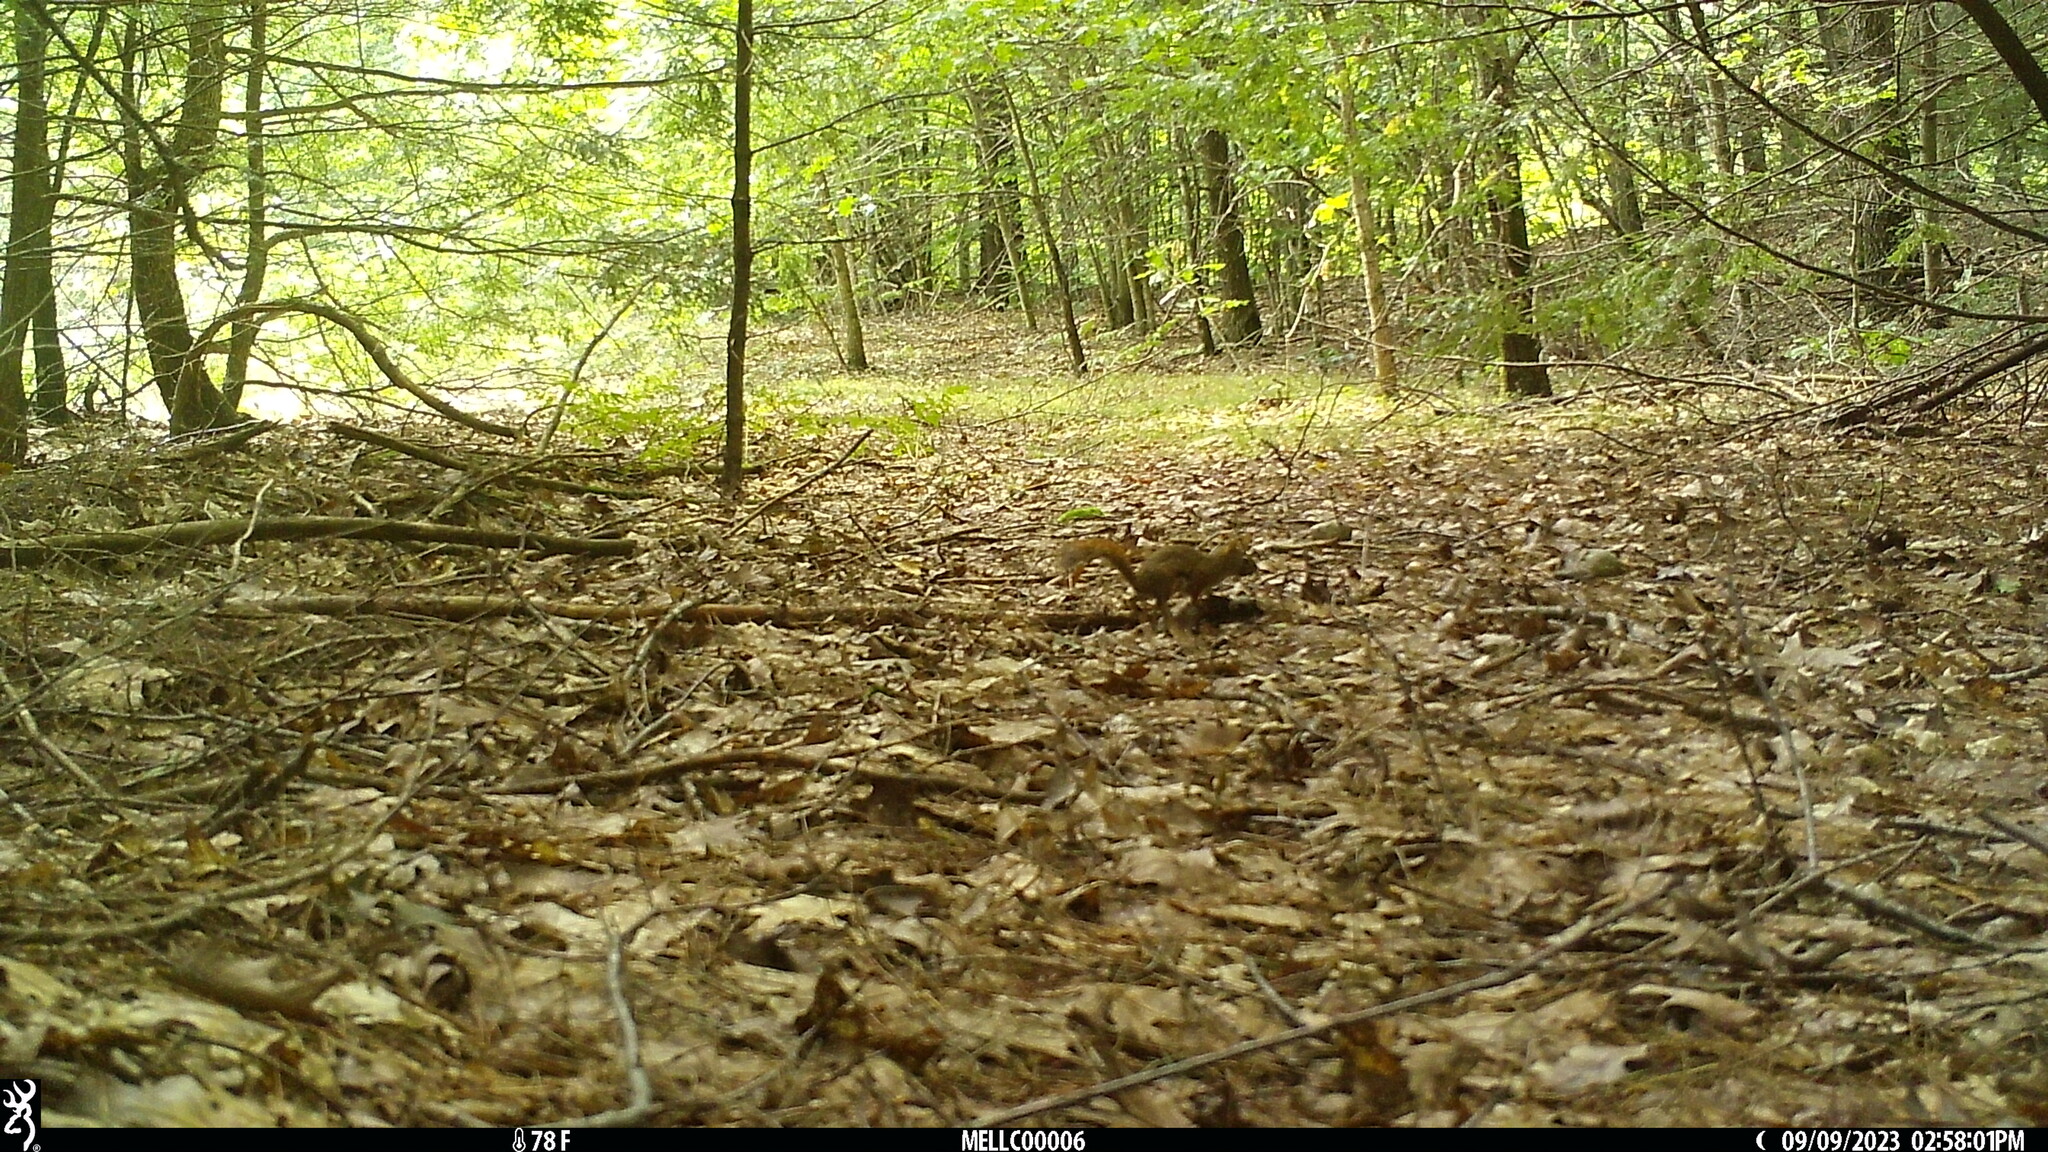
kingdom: Animalia
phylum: Chordata
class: Mammalia
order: Rodentia
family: Sciuridae
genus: Tamiasciurus
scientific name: Tamiasciurus hudsonicus
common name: Red squirrel
